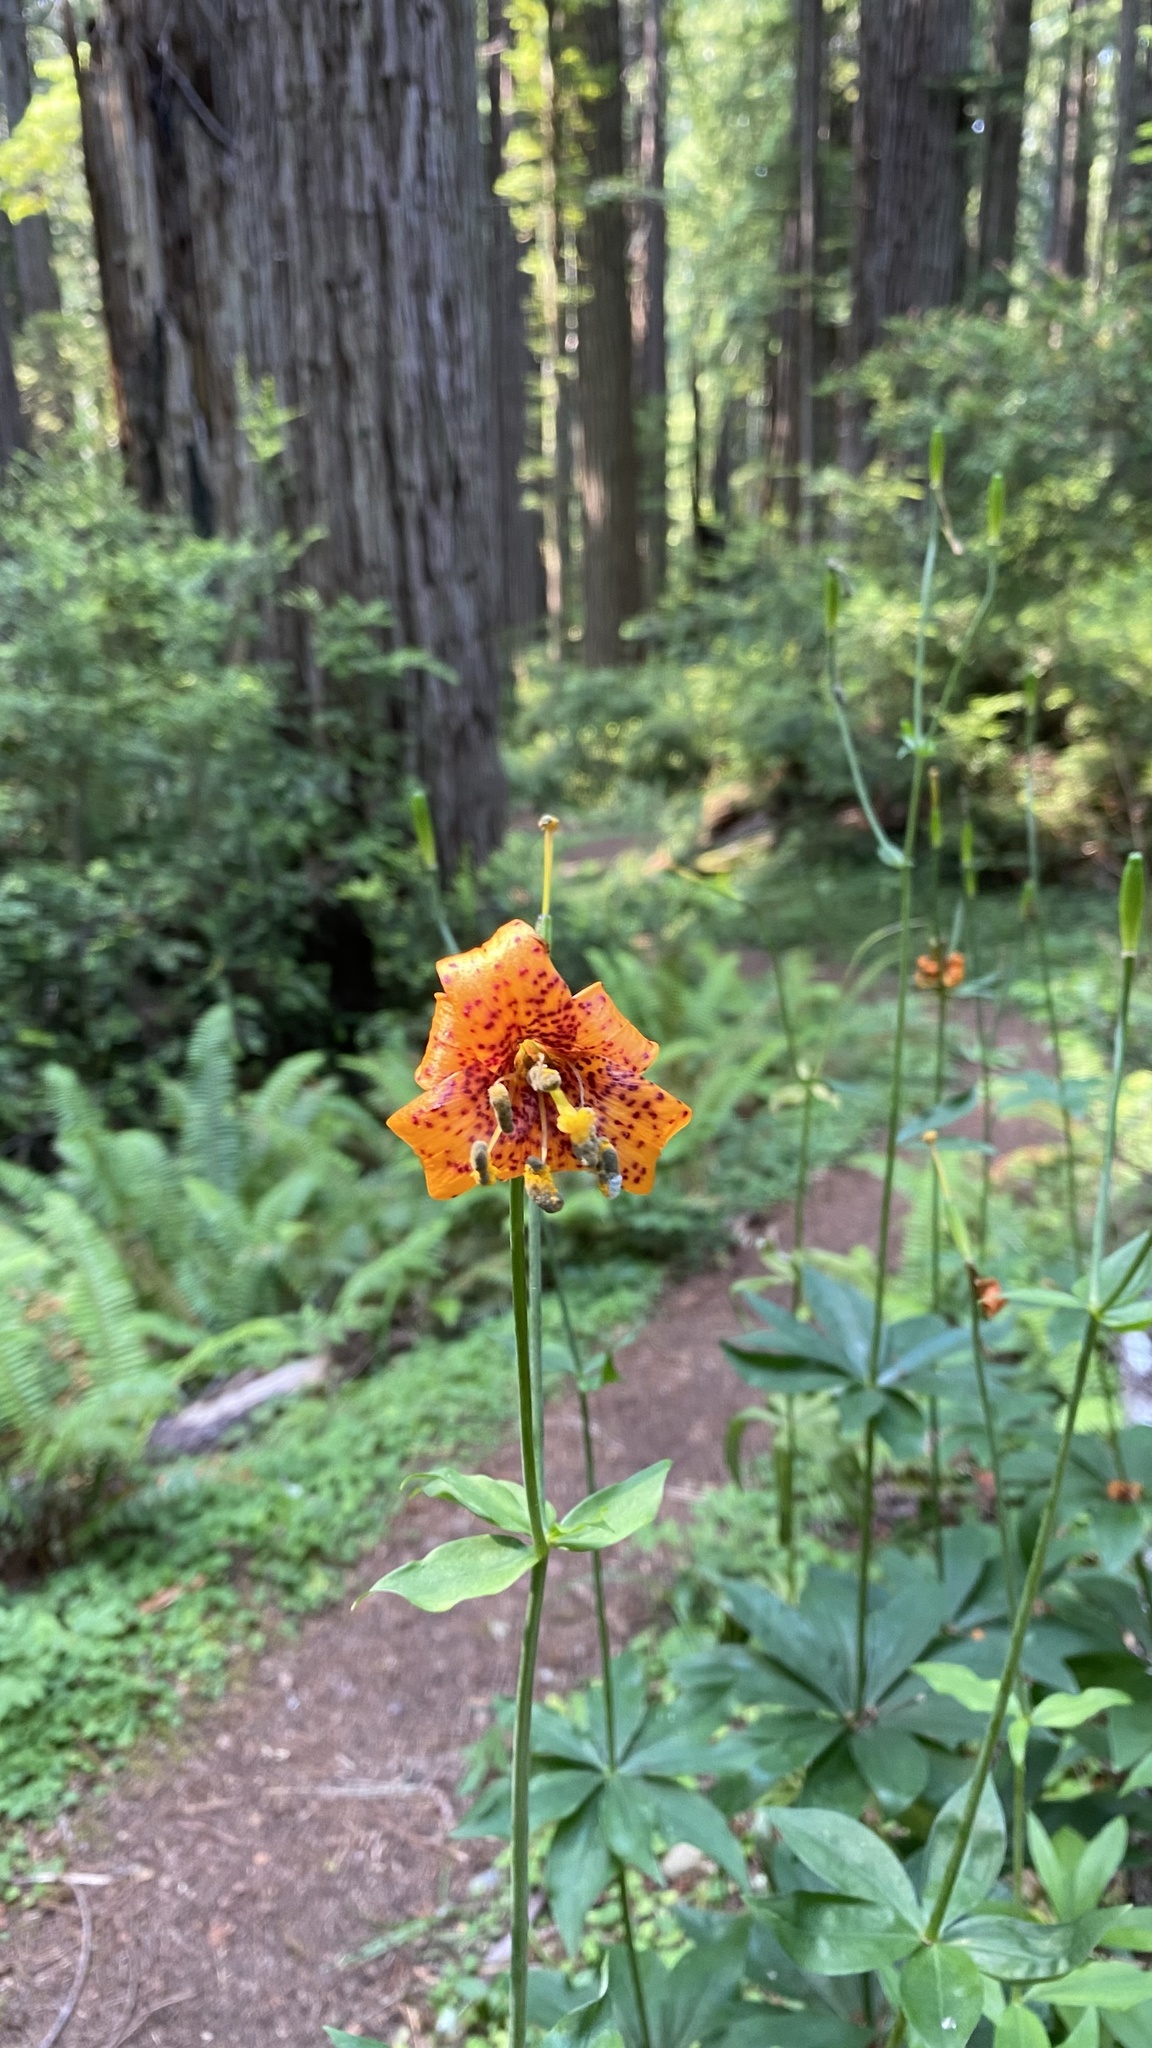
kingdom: Plantae
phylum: Tracheophyta
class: Liliopsida
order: Liliales
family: Liliaceae
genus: Lilium
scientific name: Lilium columbianum
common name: Columbia lily
